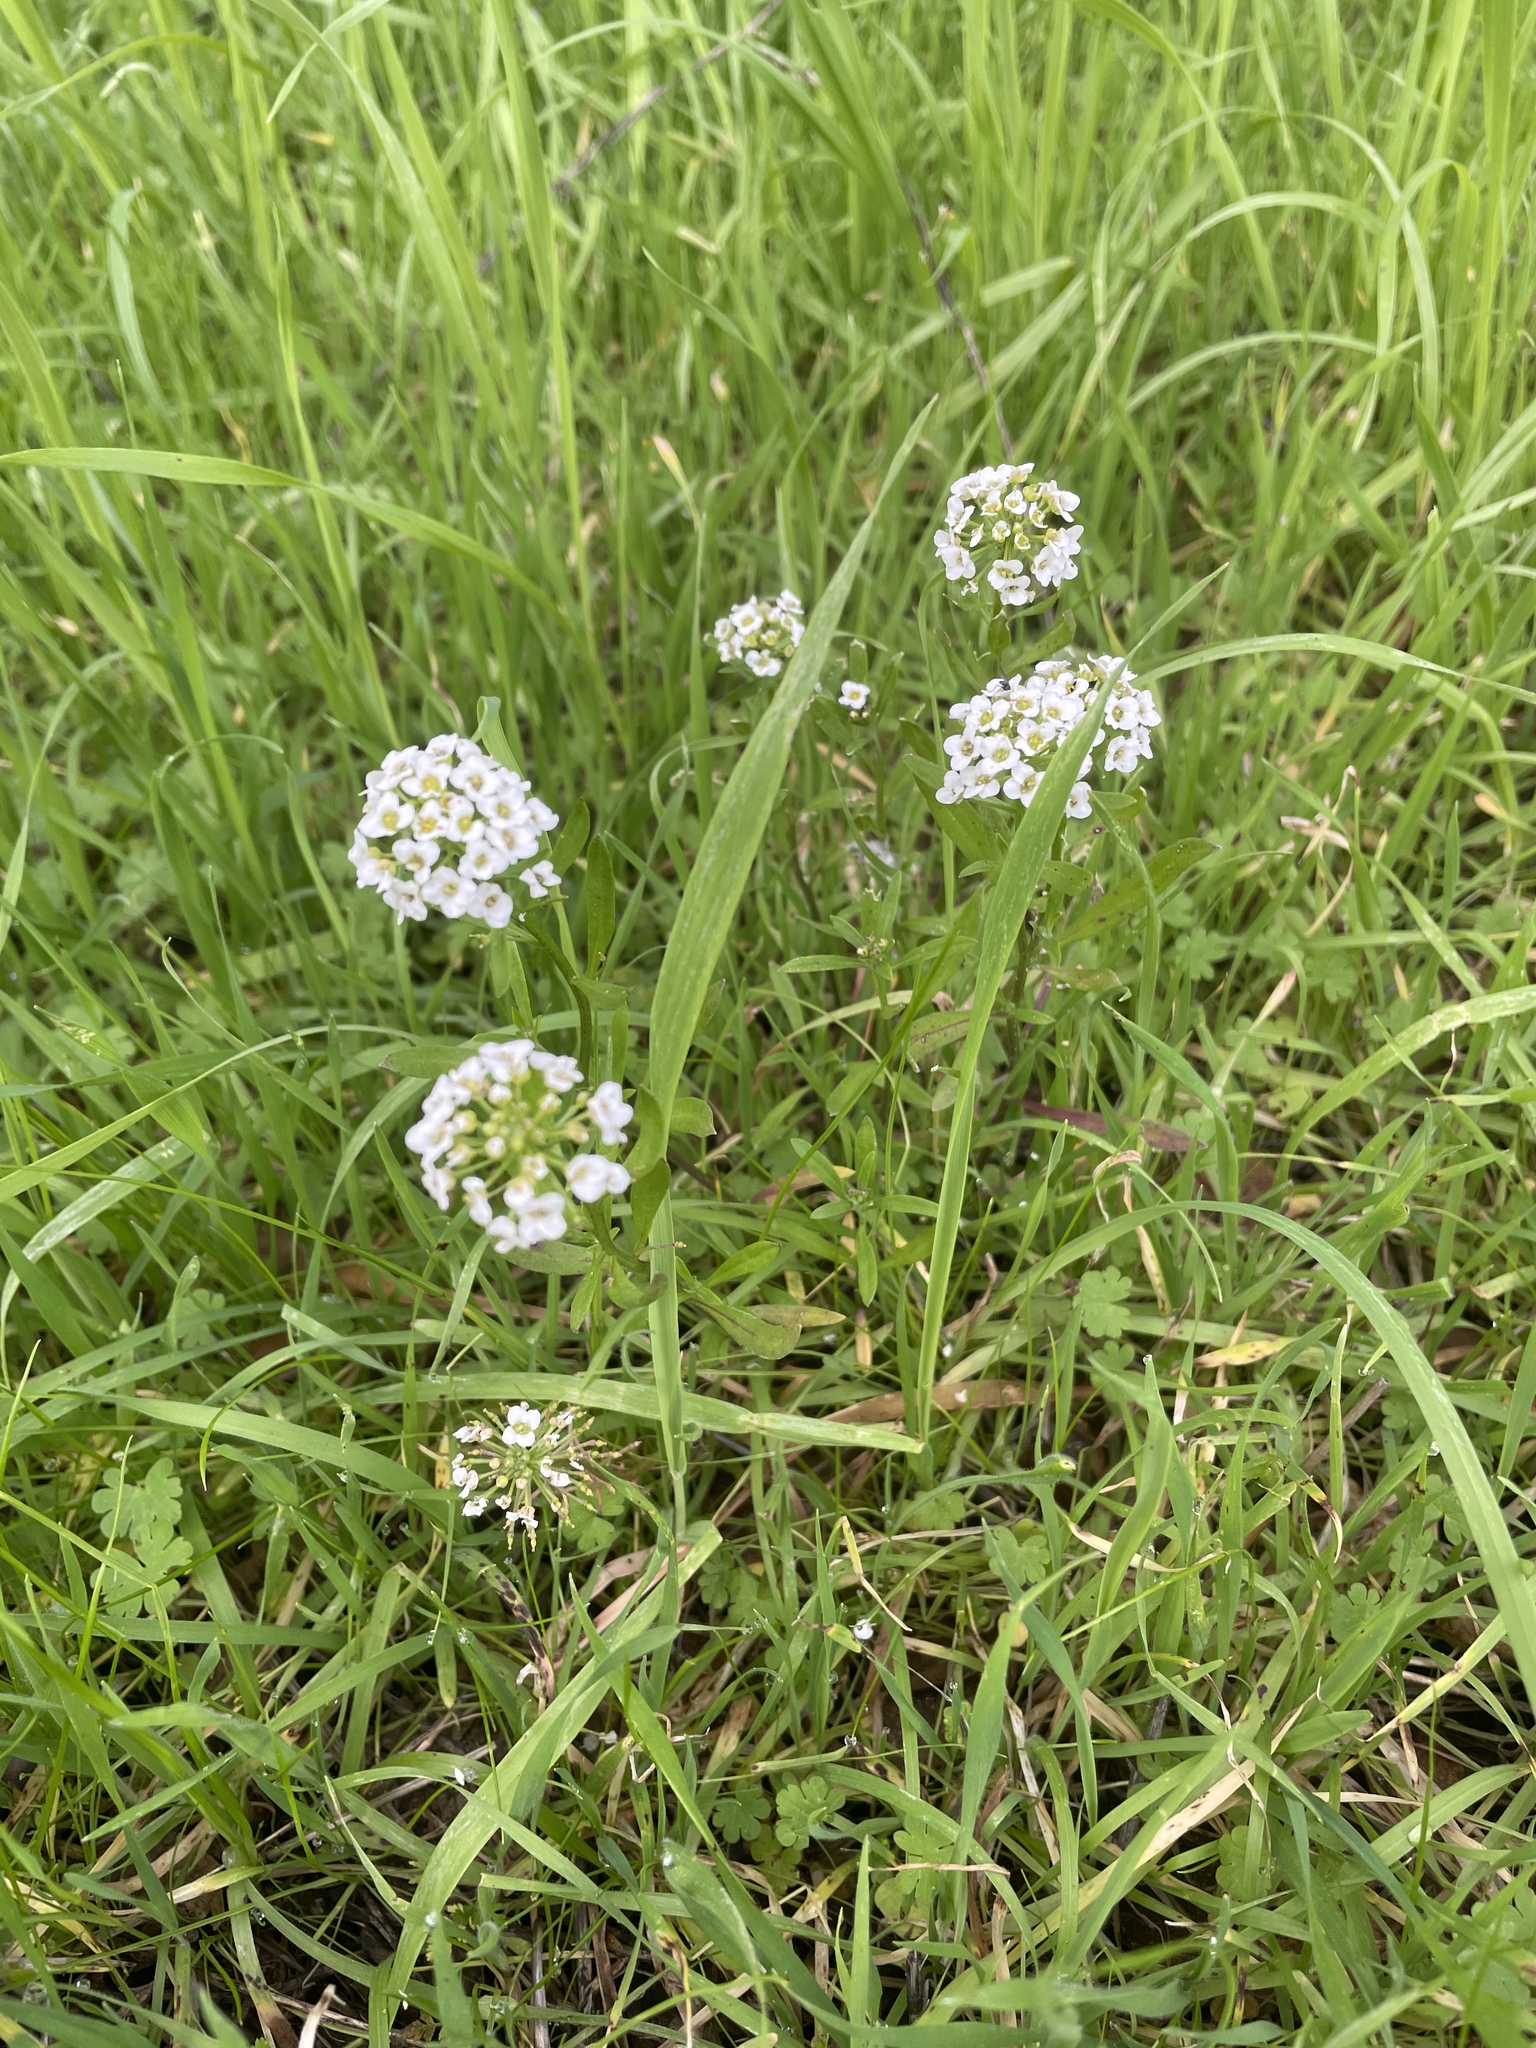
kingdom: Plantae
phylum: Tracheophyta
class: Magnoliopsida
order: Brassicales
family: Brassicaceae
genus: Lobularia
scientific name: Lobularia maritima
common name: Sweet alison
